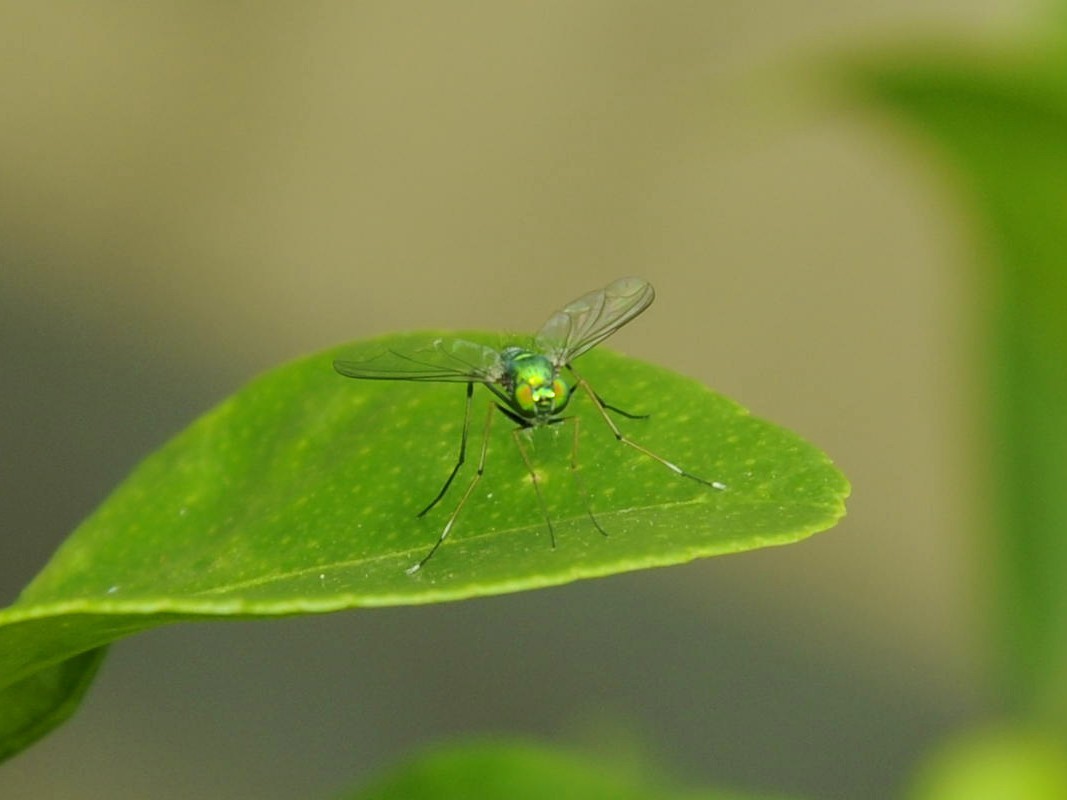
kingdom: Animalia
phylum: Arthropoda
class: Insecta
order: Diptera
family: Dolichopodidae
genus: Chrysosoma
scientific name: Chrysosoma leucopogon
